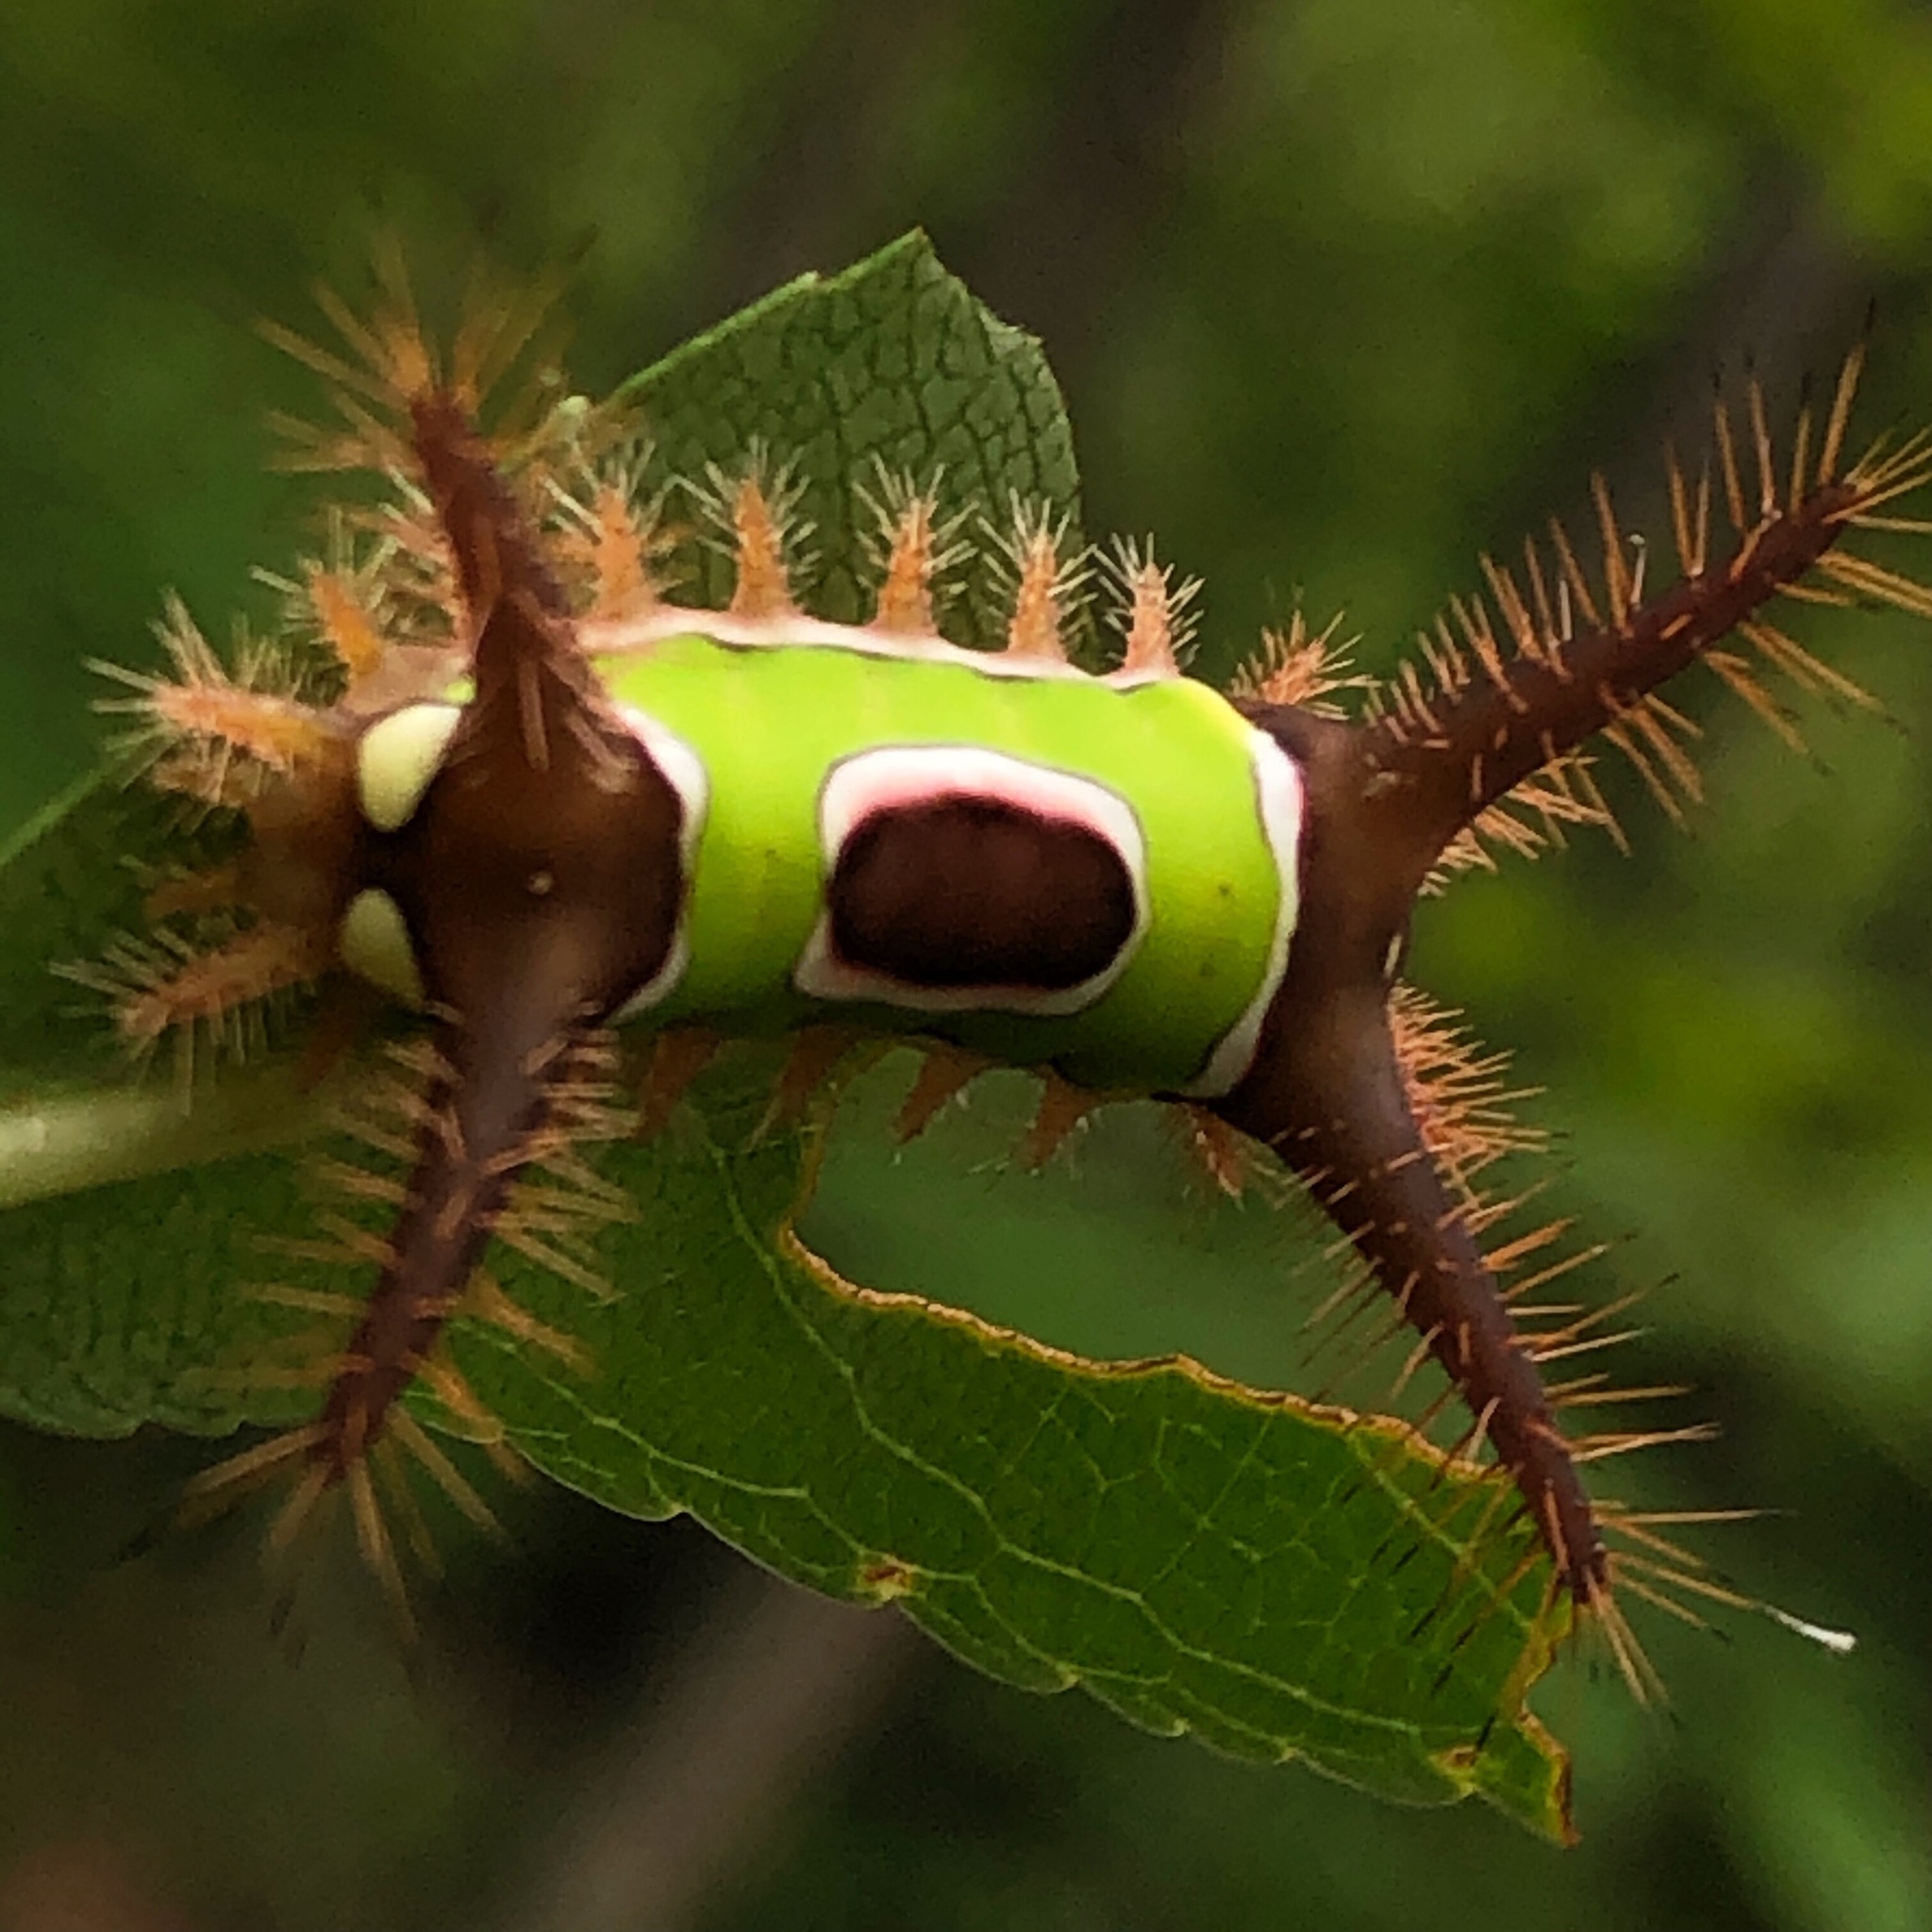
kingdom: Animalia
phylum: Arthropoda
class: Insecta
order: Lepidoptera
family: Limacodidae
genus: Acharia
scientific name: Acharia stimulea
